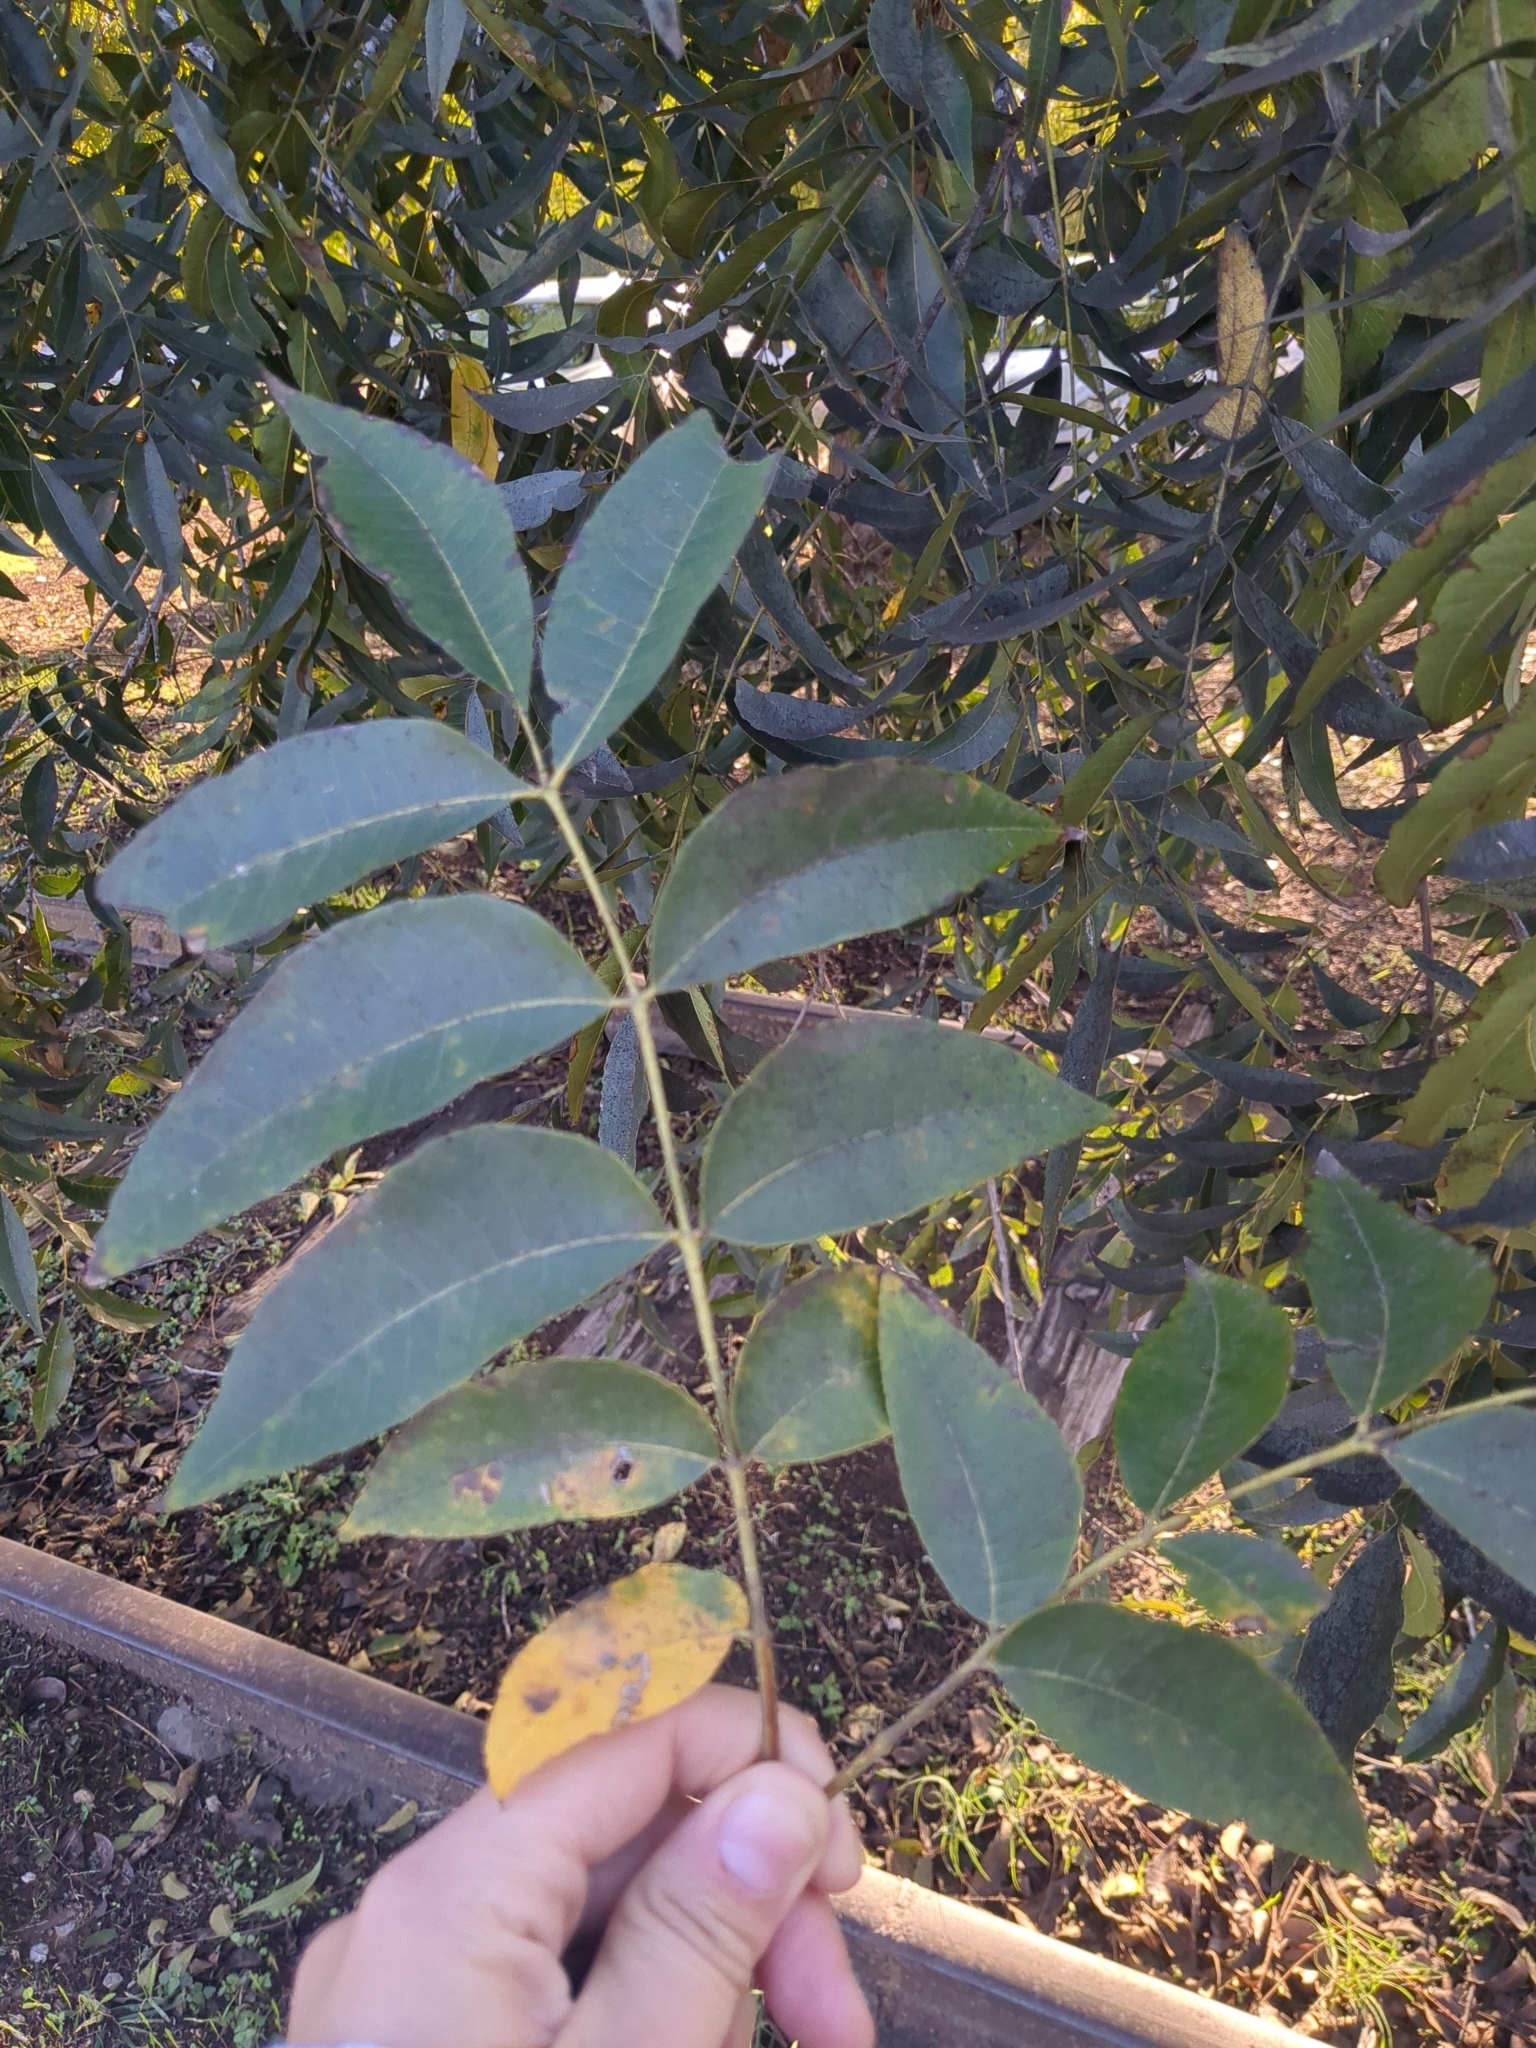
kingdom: Plantae
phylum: Tracheophyta
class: Magnoliopsida
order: Fagales
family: Juglandaceae
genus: Carya
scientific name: Carya illinoinensis
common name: Pecan
